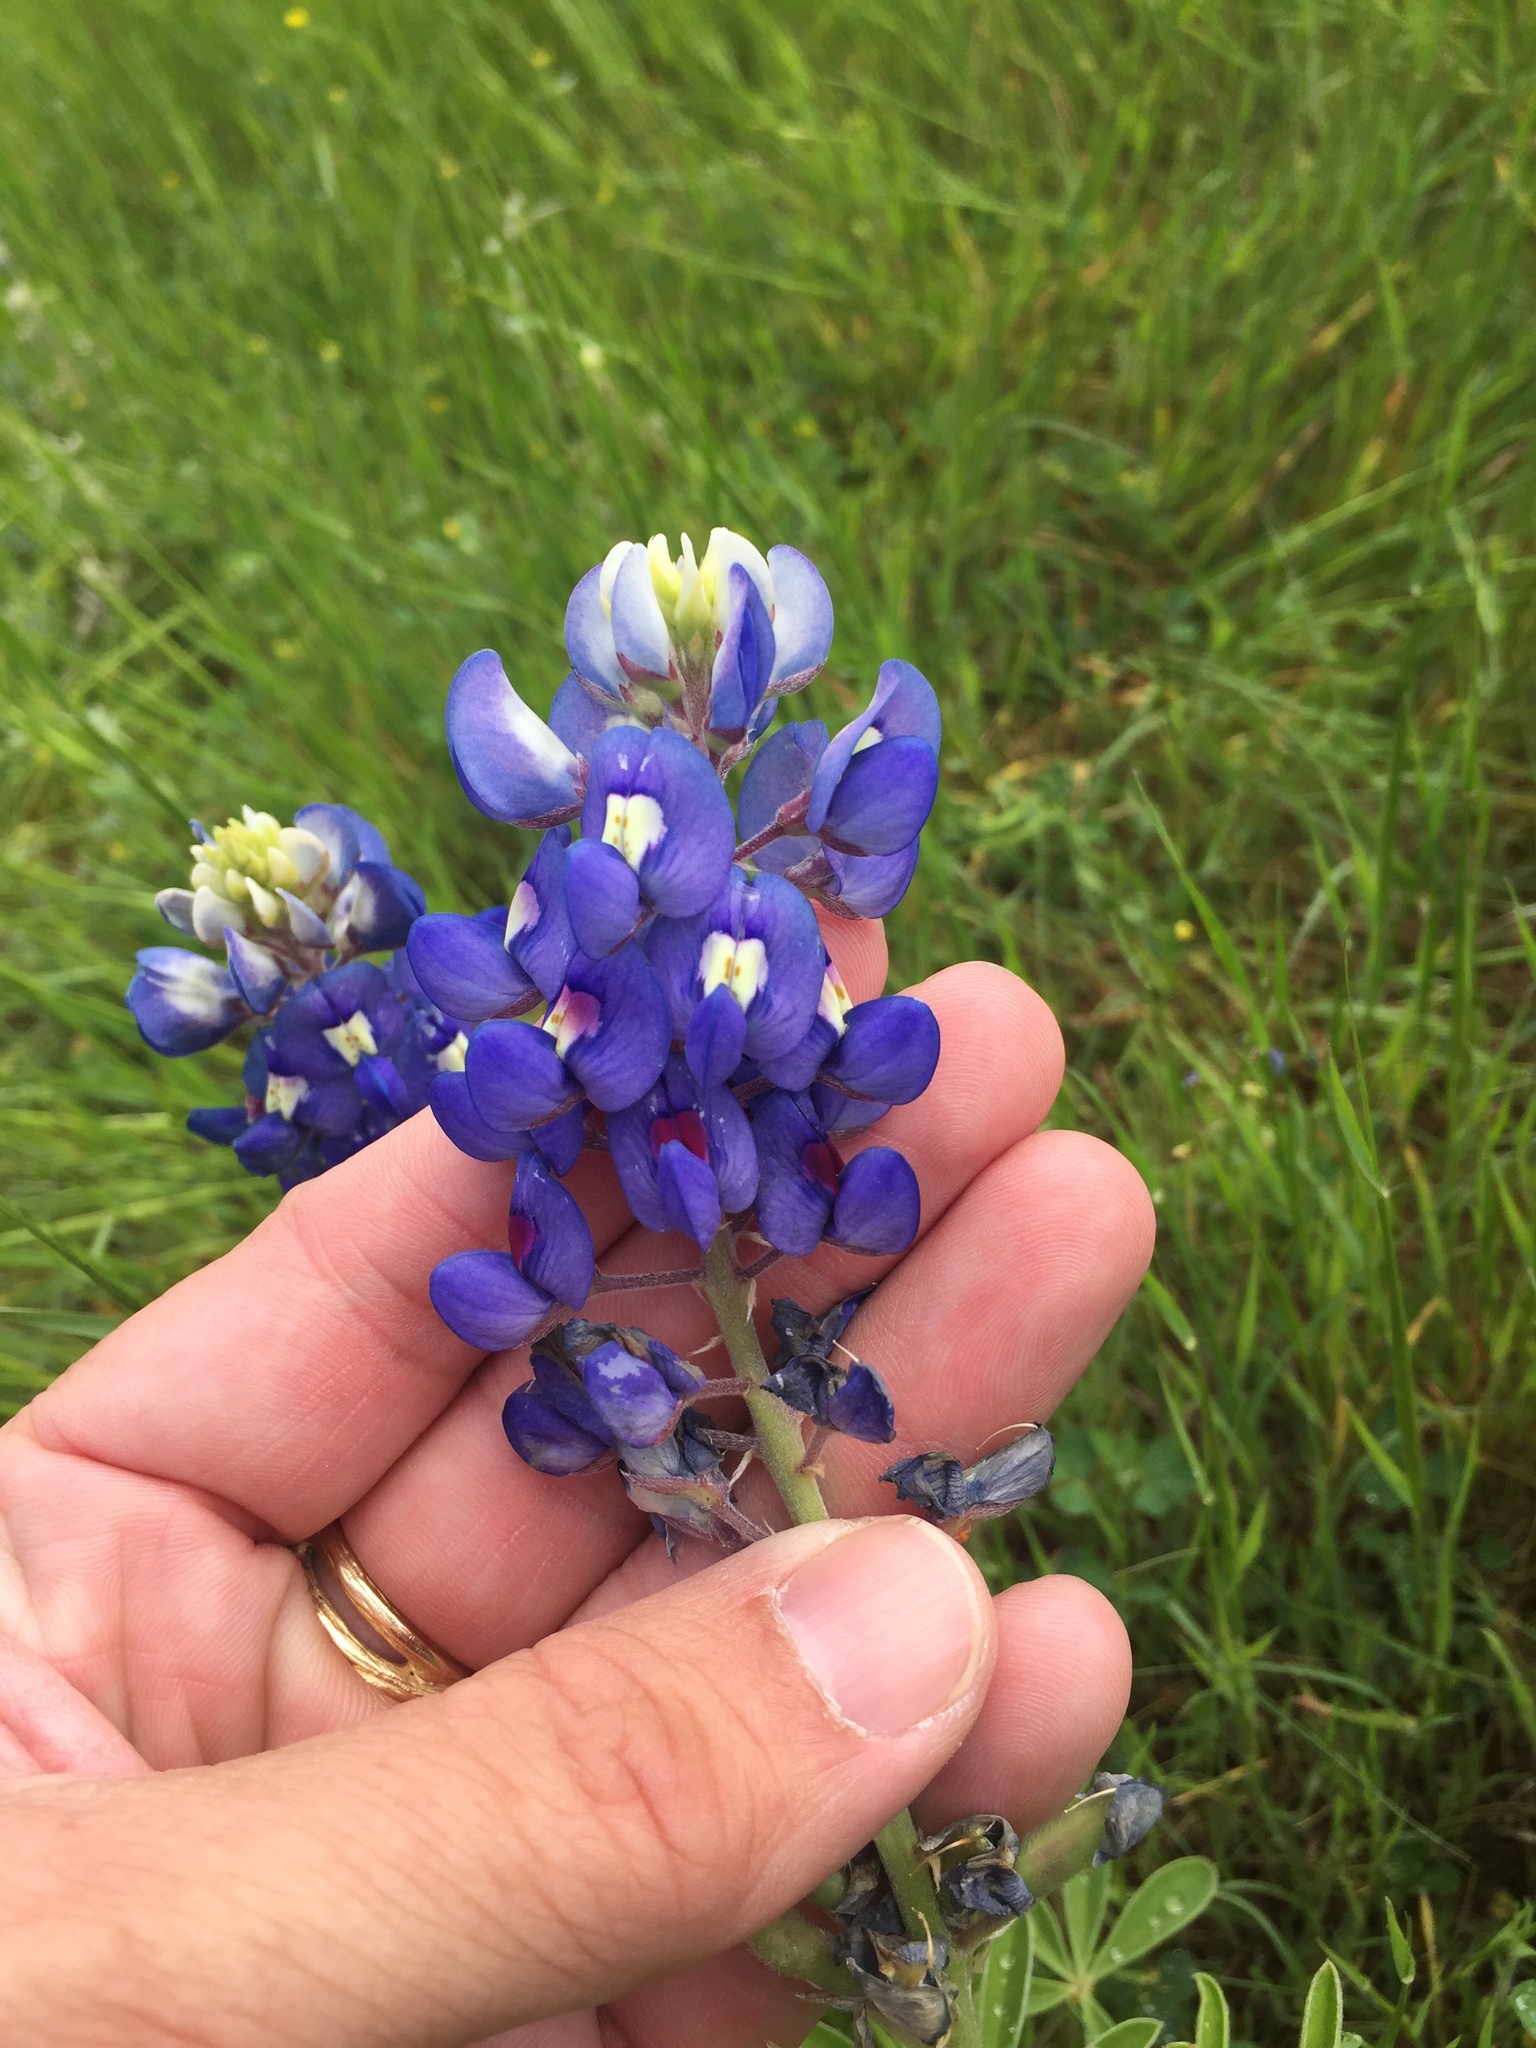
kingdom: Plantae
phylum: Tracheophyta
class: Magnoliopsida
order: Fabales
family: Fabaceae
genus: Lupinus
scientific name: Lupinus texensis
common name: Texas bluebonnet
